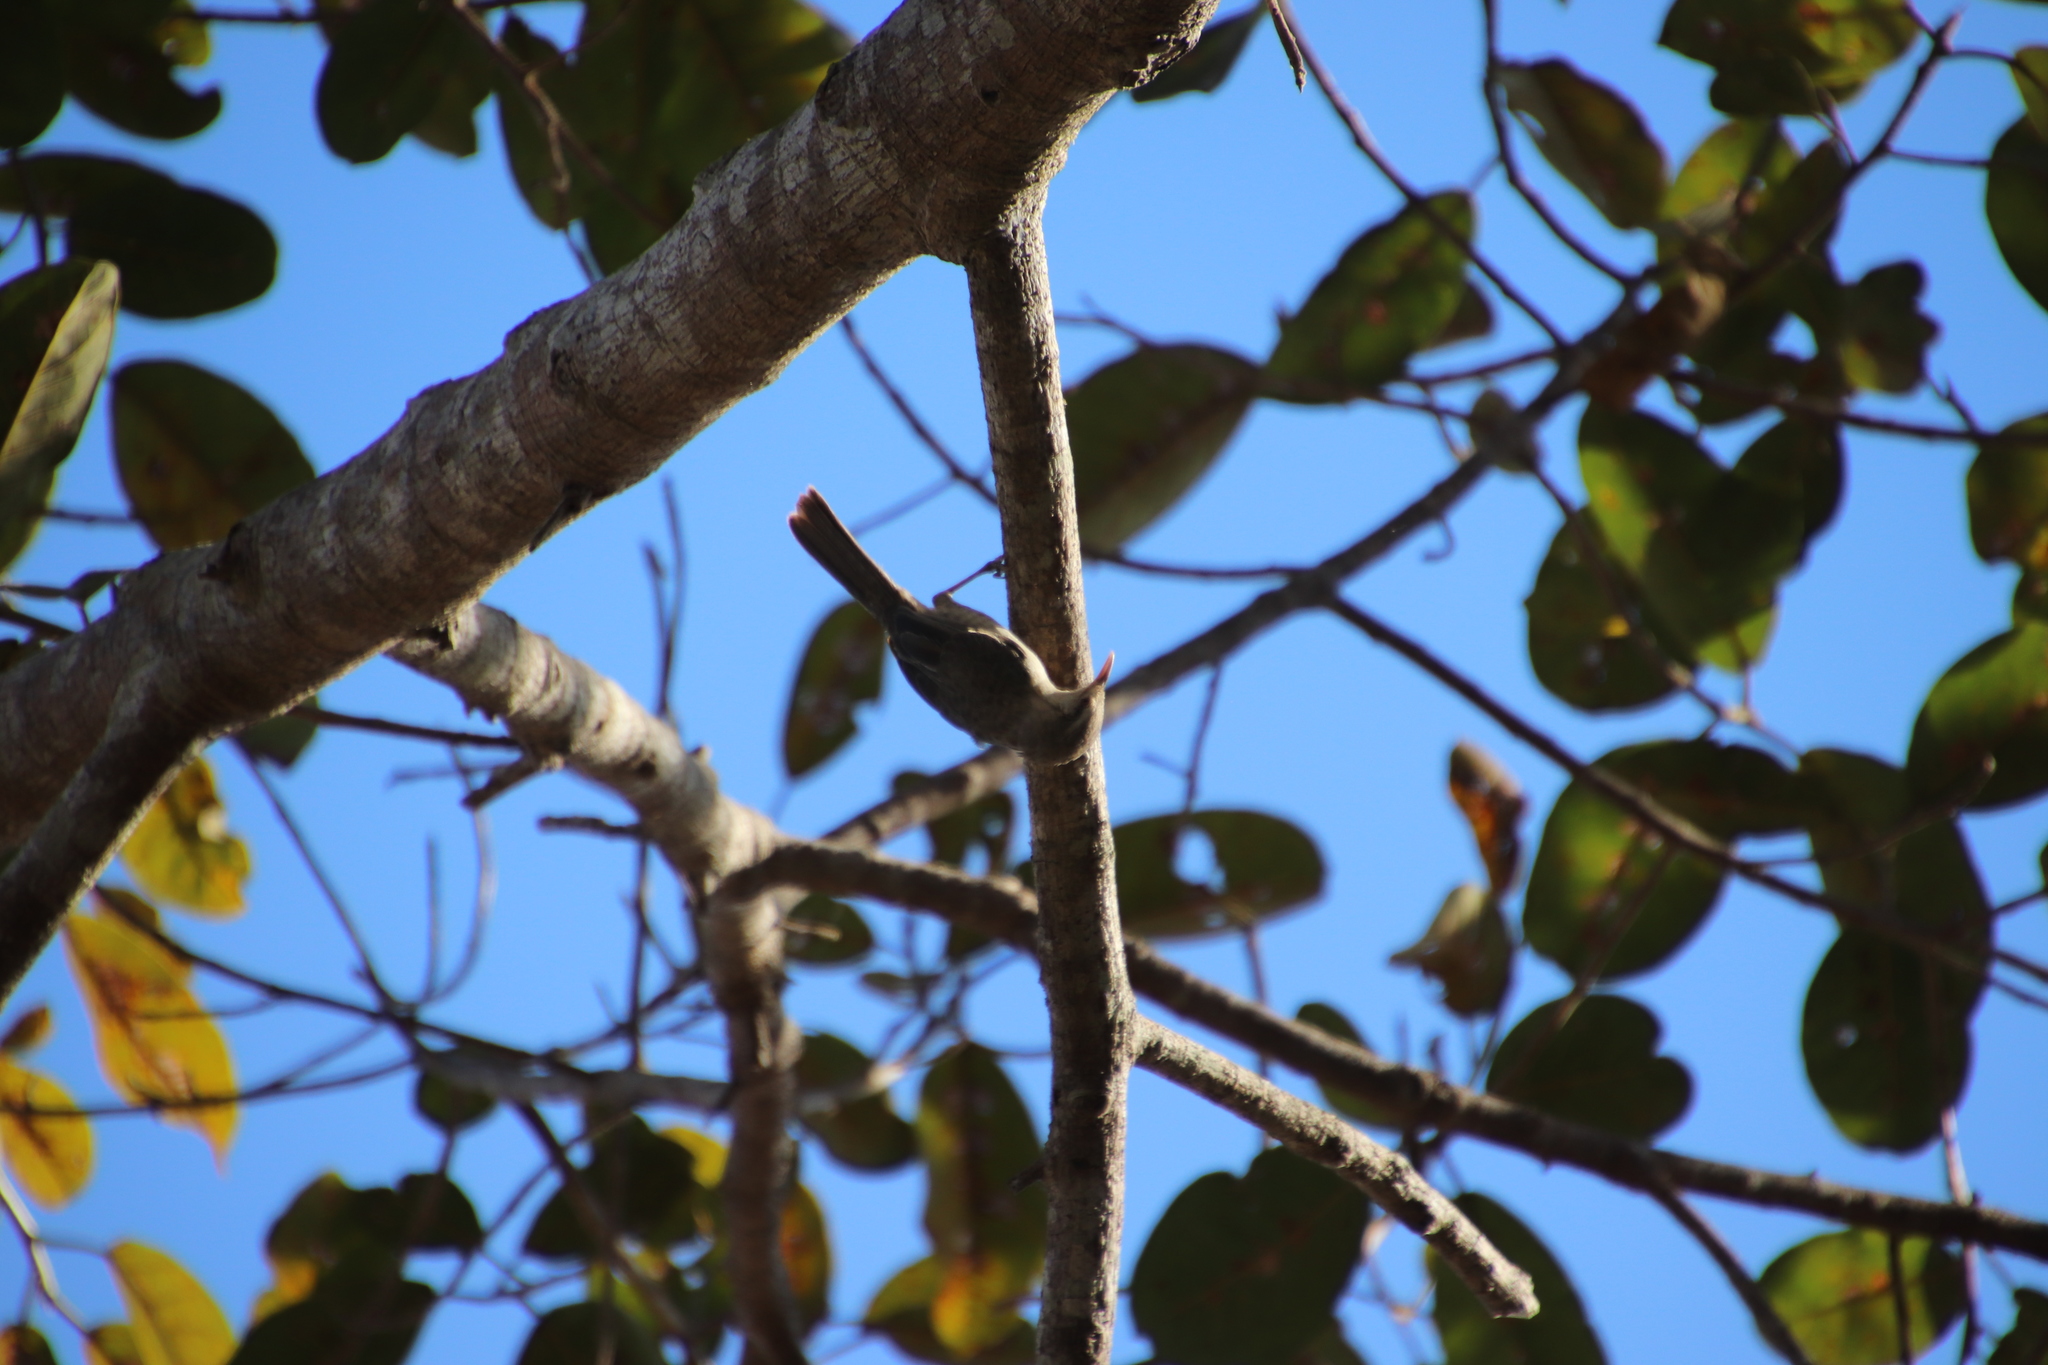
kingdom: Animalia
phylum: Chordata
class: Aves
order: Passeriformes
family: Troglodytidae
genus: Campylorhynchus
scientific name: Campylorhynchus turdinus
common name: Thrush-like wren
